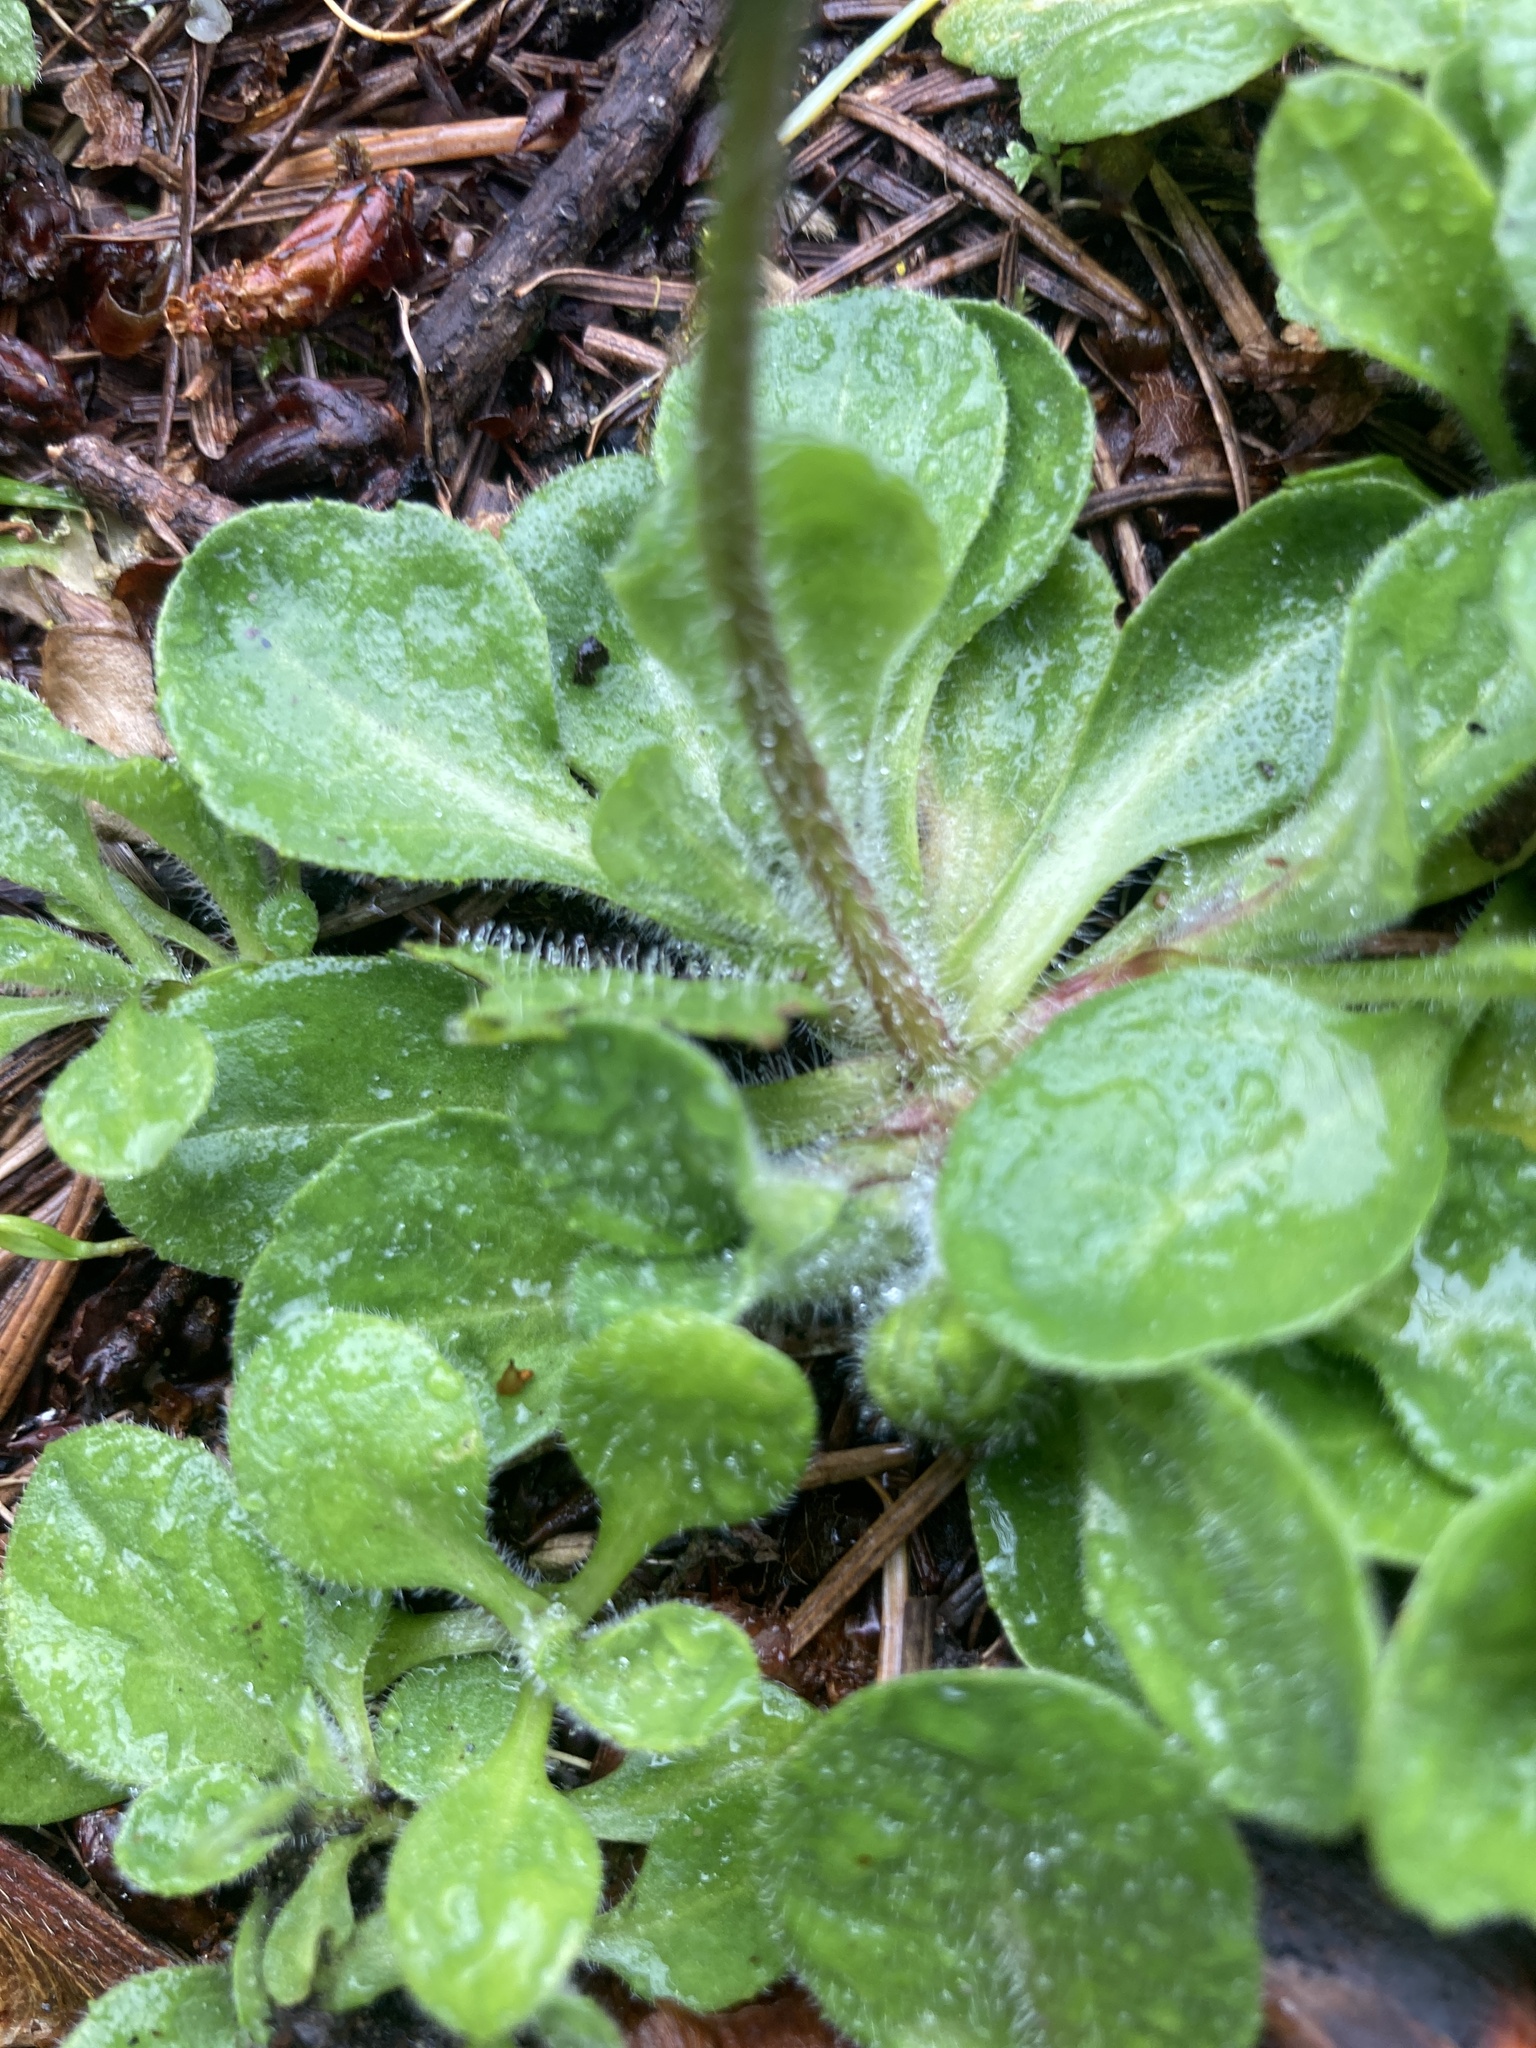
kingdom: Plantae
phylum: Tracheophyta
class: Magnoliopsida
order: Asterales
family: Asteraceae
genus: Bellis
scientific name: Bellis perennis
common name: Lawndaisy
